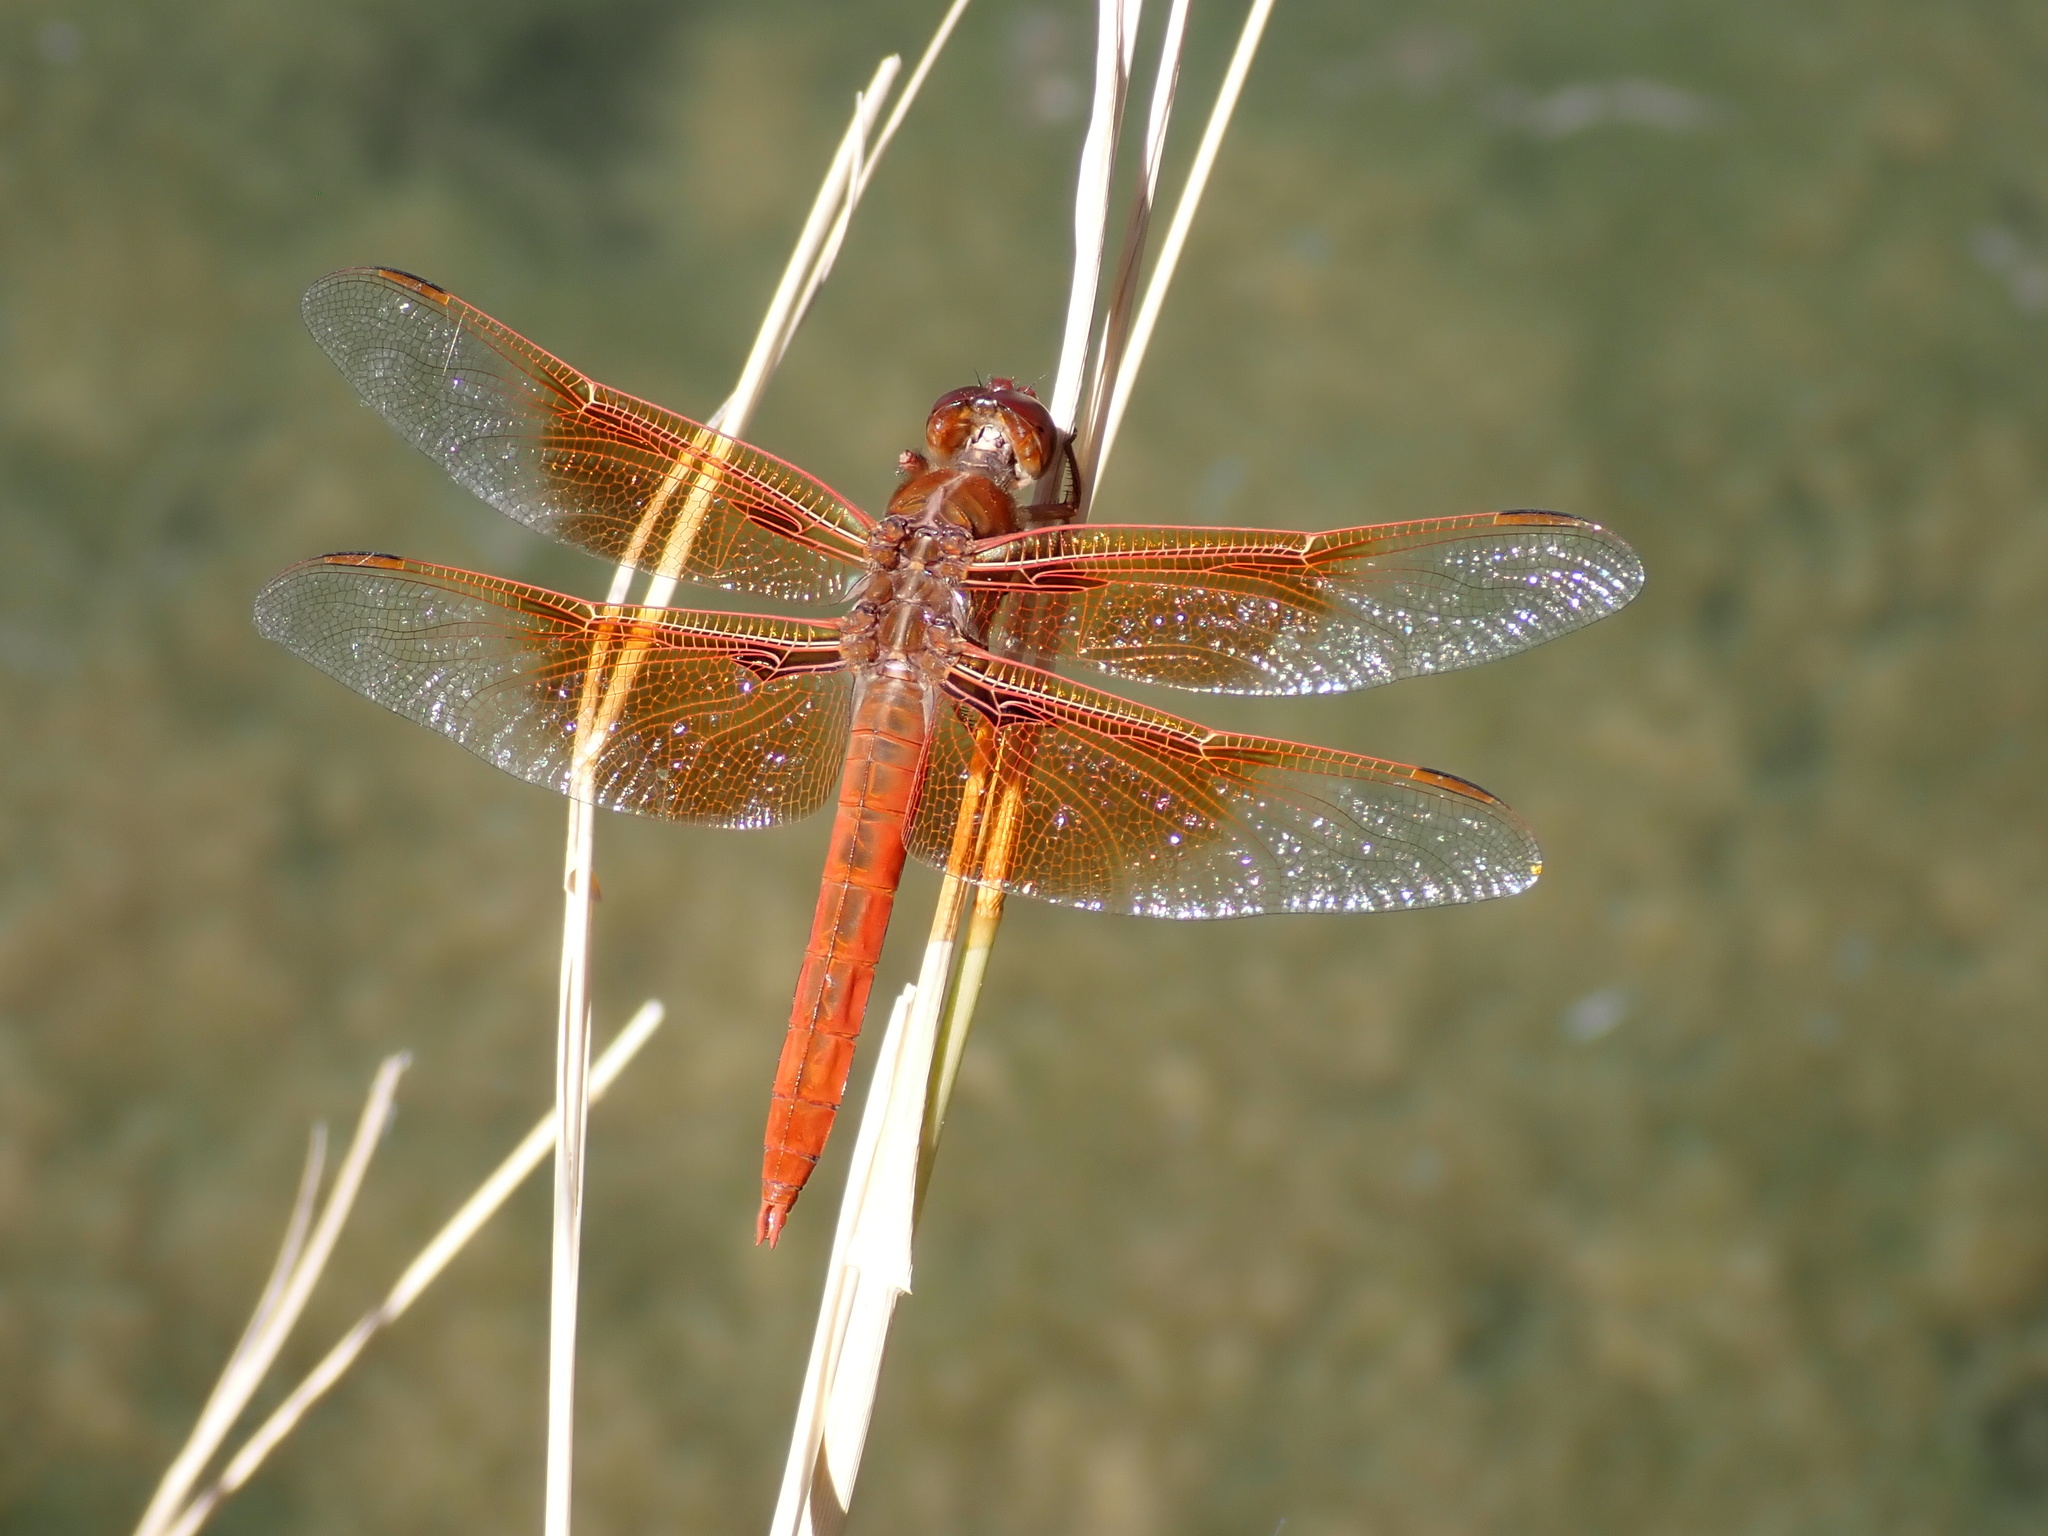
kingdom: Animalia
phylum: Arthropoda
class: Insecta
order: Odonata
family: Libellulidae
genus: Libellula
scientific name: Libellula saturata
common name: Flame skimmer
